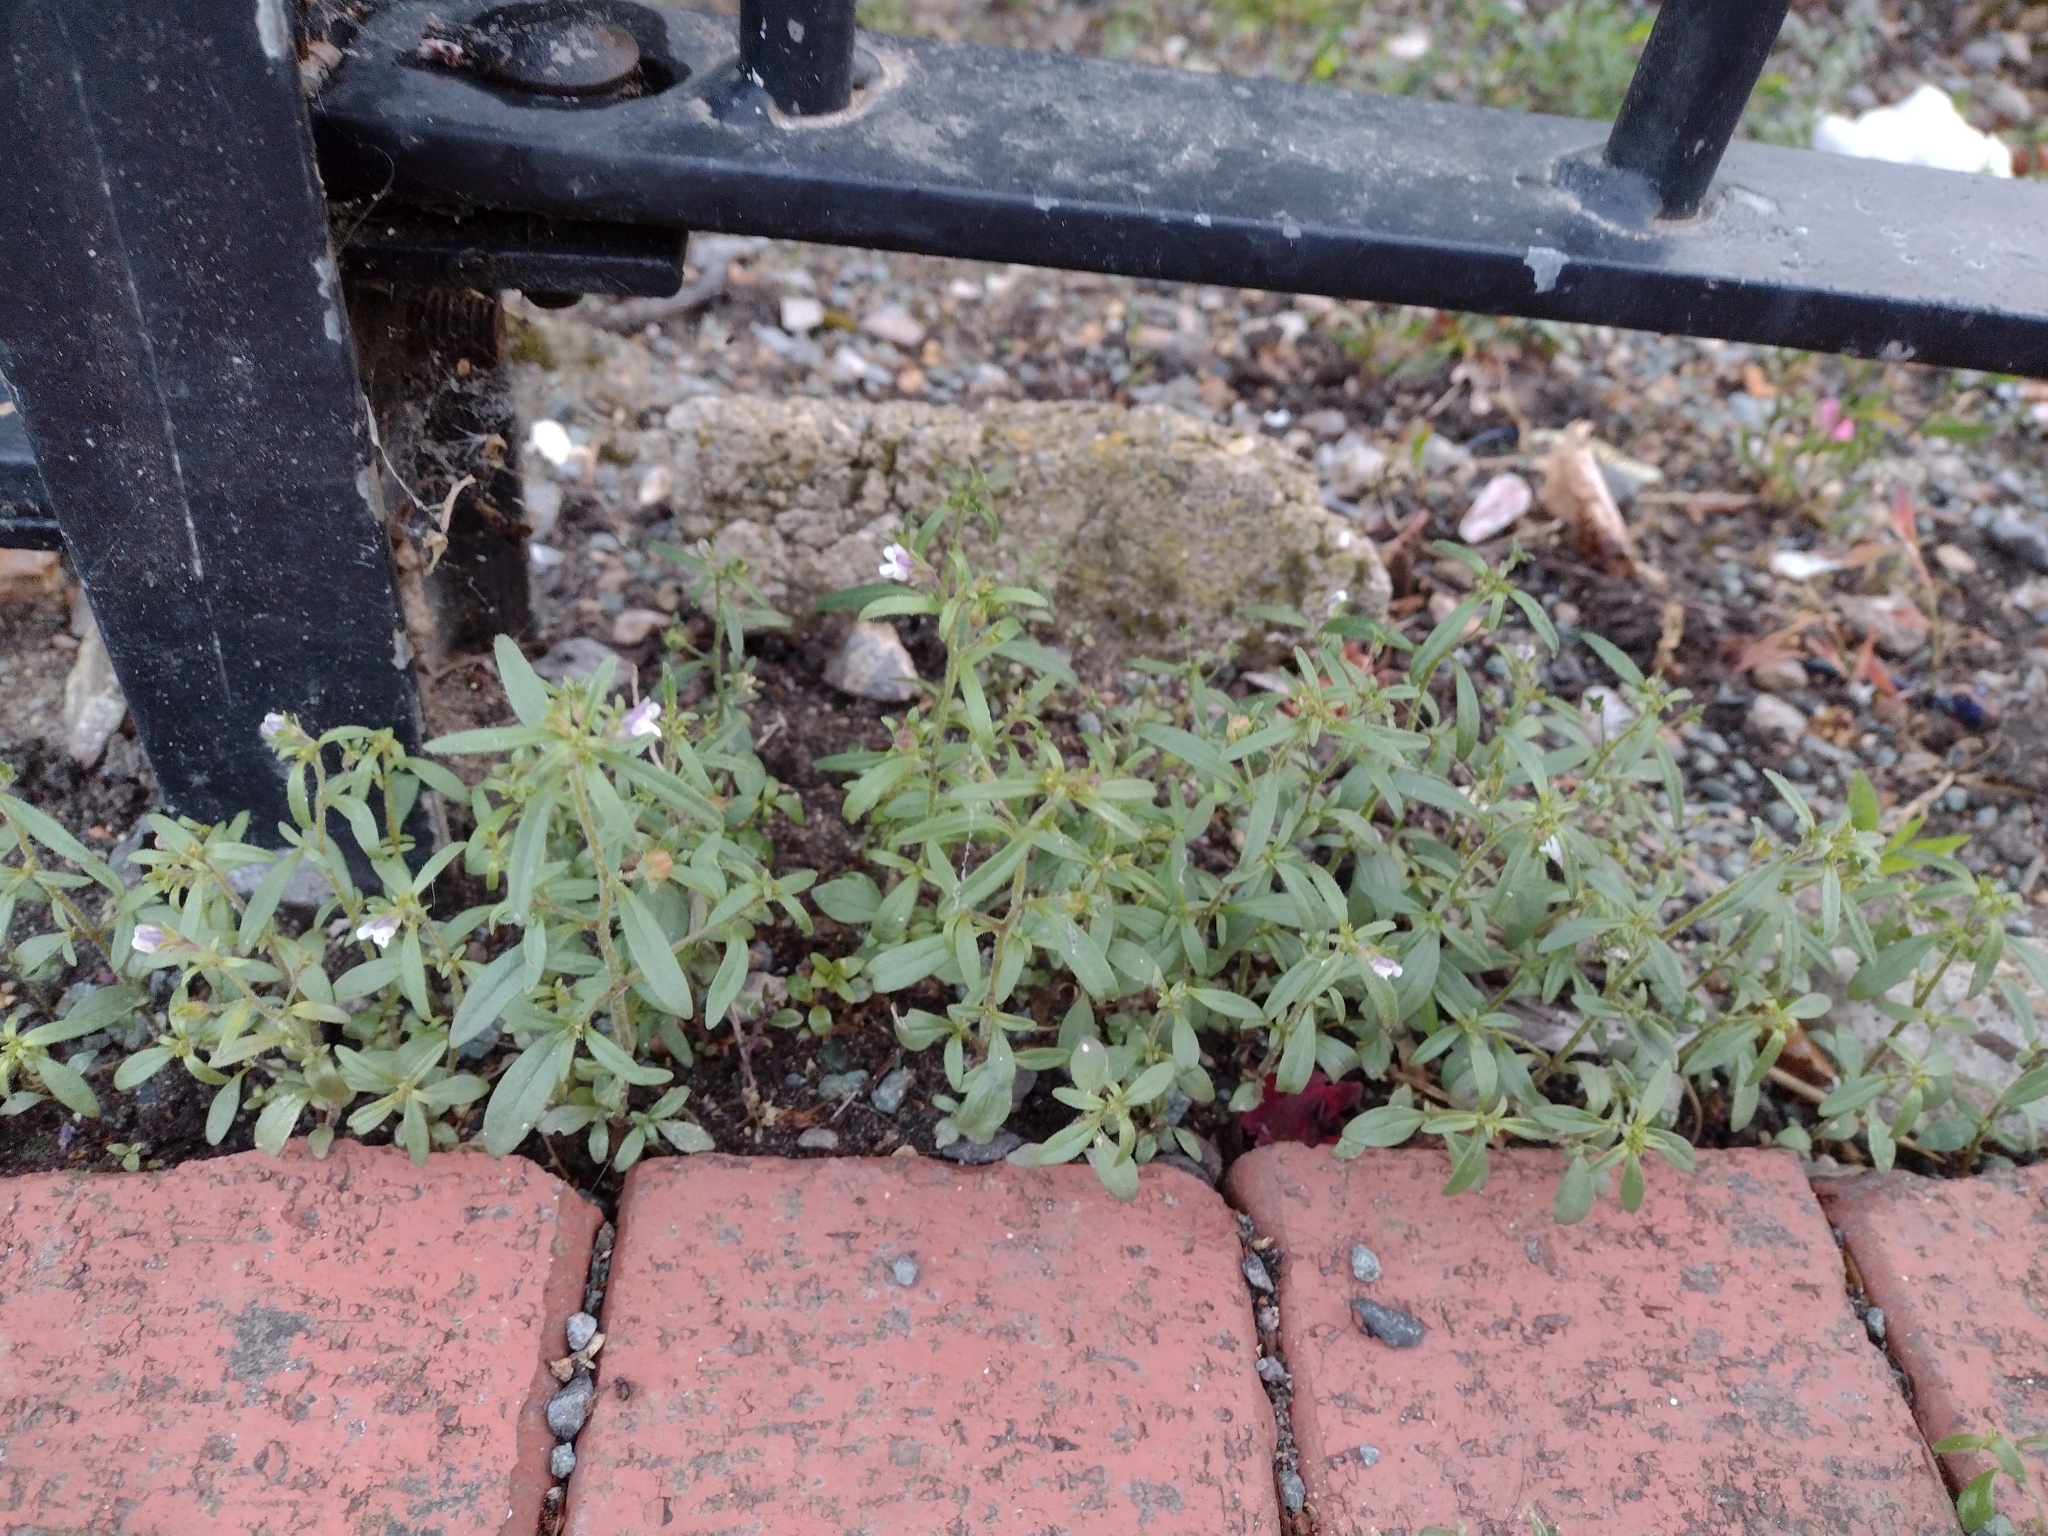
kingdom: Plantae
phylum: Tracheophyta
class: Magnoliopsida
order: Lamiales
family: Plantaginaceae
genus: Chaenorhinum
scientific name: Chaenorhinum minus
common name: Dwarf snapdragon
